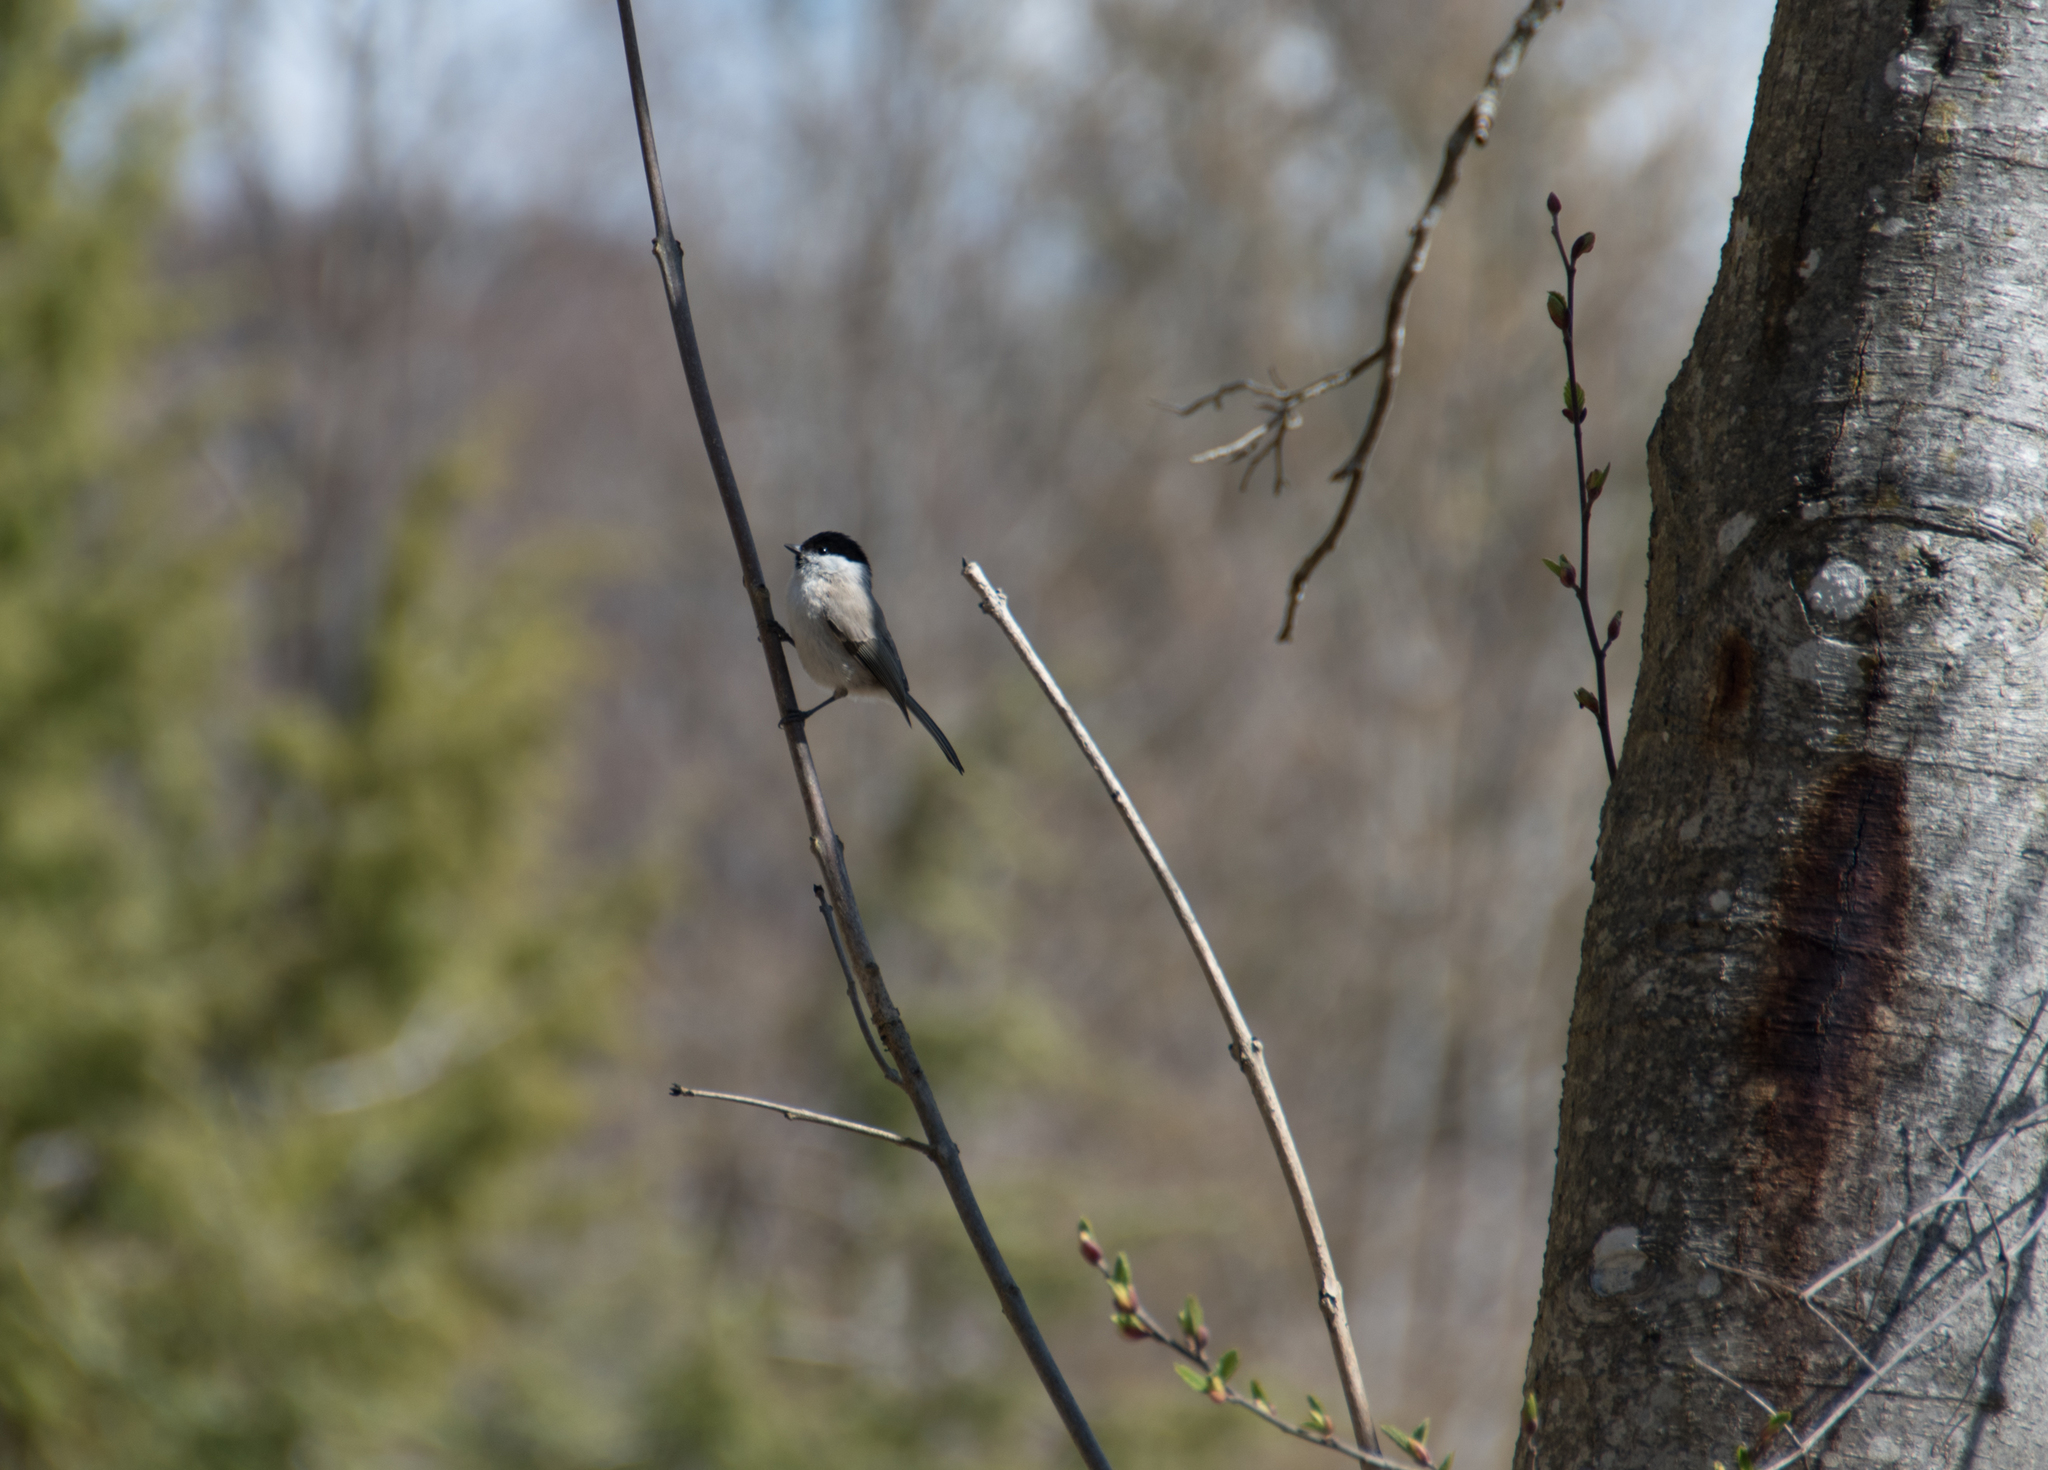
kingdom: Animalia
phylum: Chordata
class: Aves
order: Passeriformes
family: Paridae
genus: Poecile
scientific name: Poecile palustris
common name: Marsh tit
